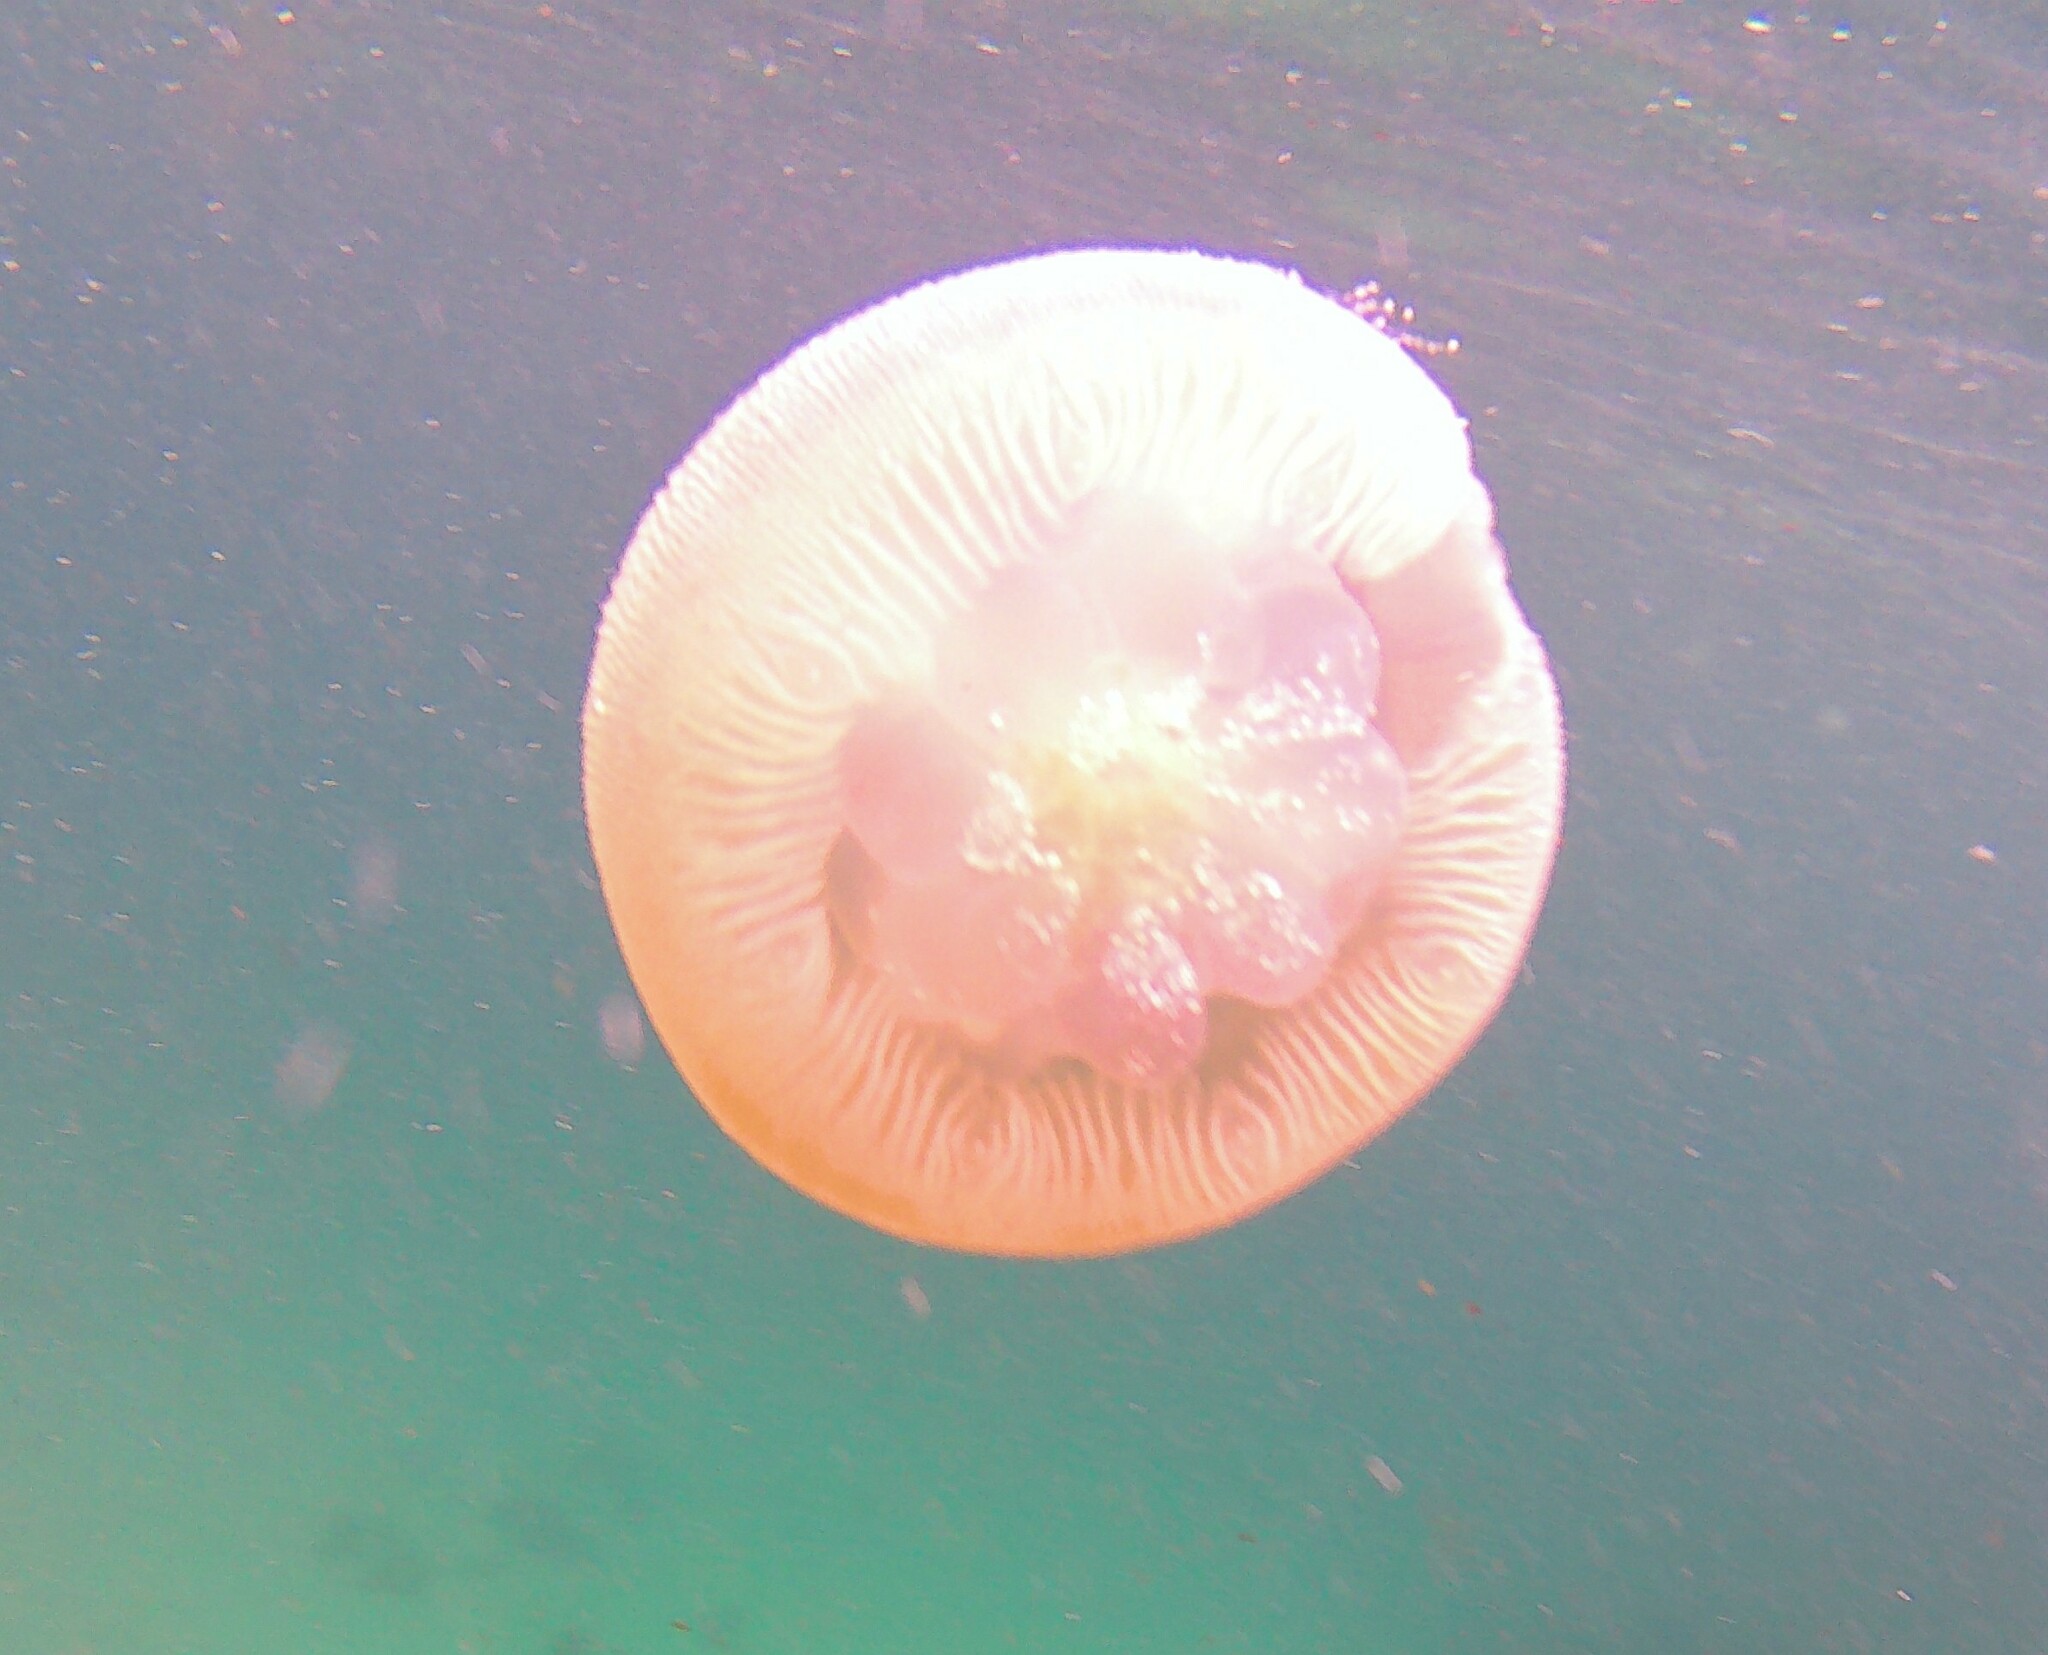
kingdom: Animalia
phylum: Cnidaria
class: Scyphozoa
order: Rhizostomeae
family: Catostylidae
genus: Catostylus
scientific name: Catostylus mosaicus
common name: Blue blubber
